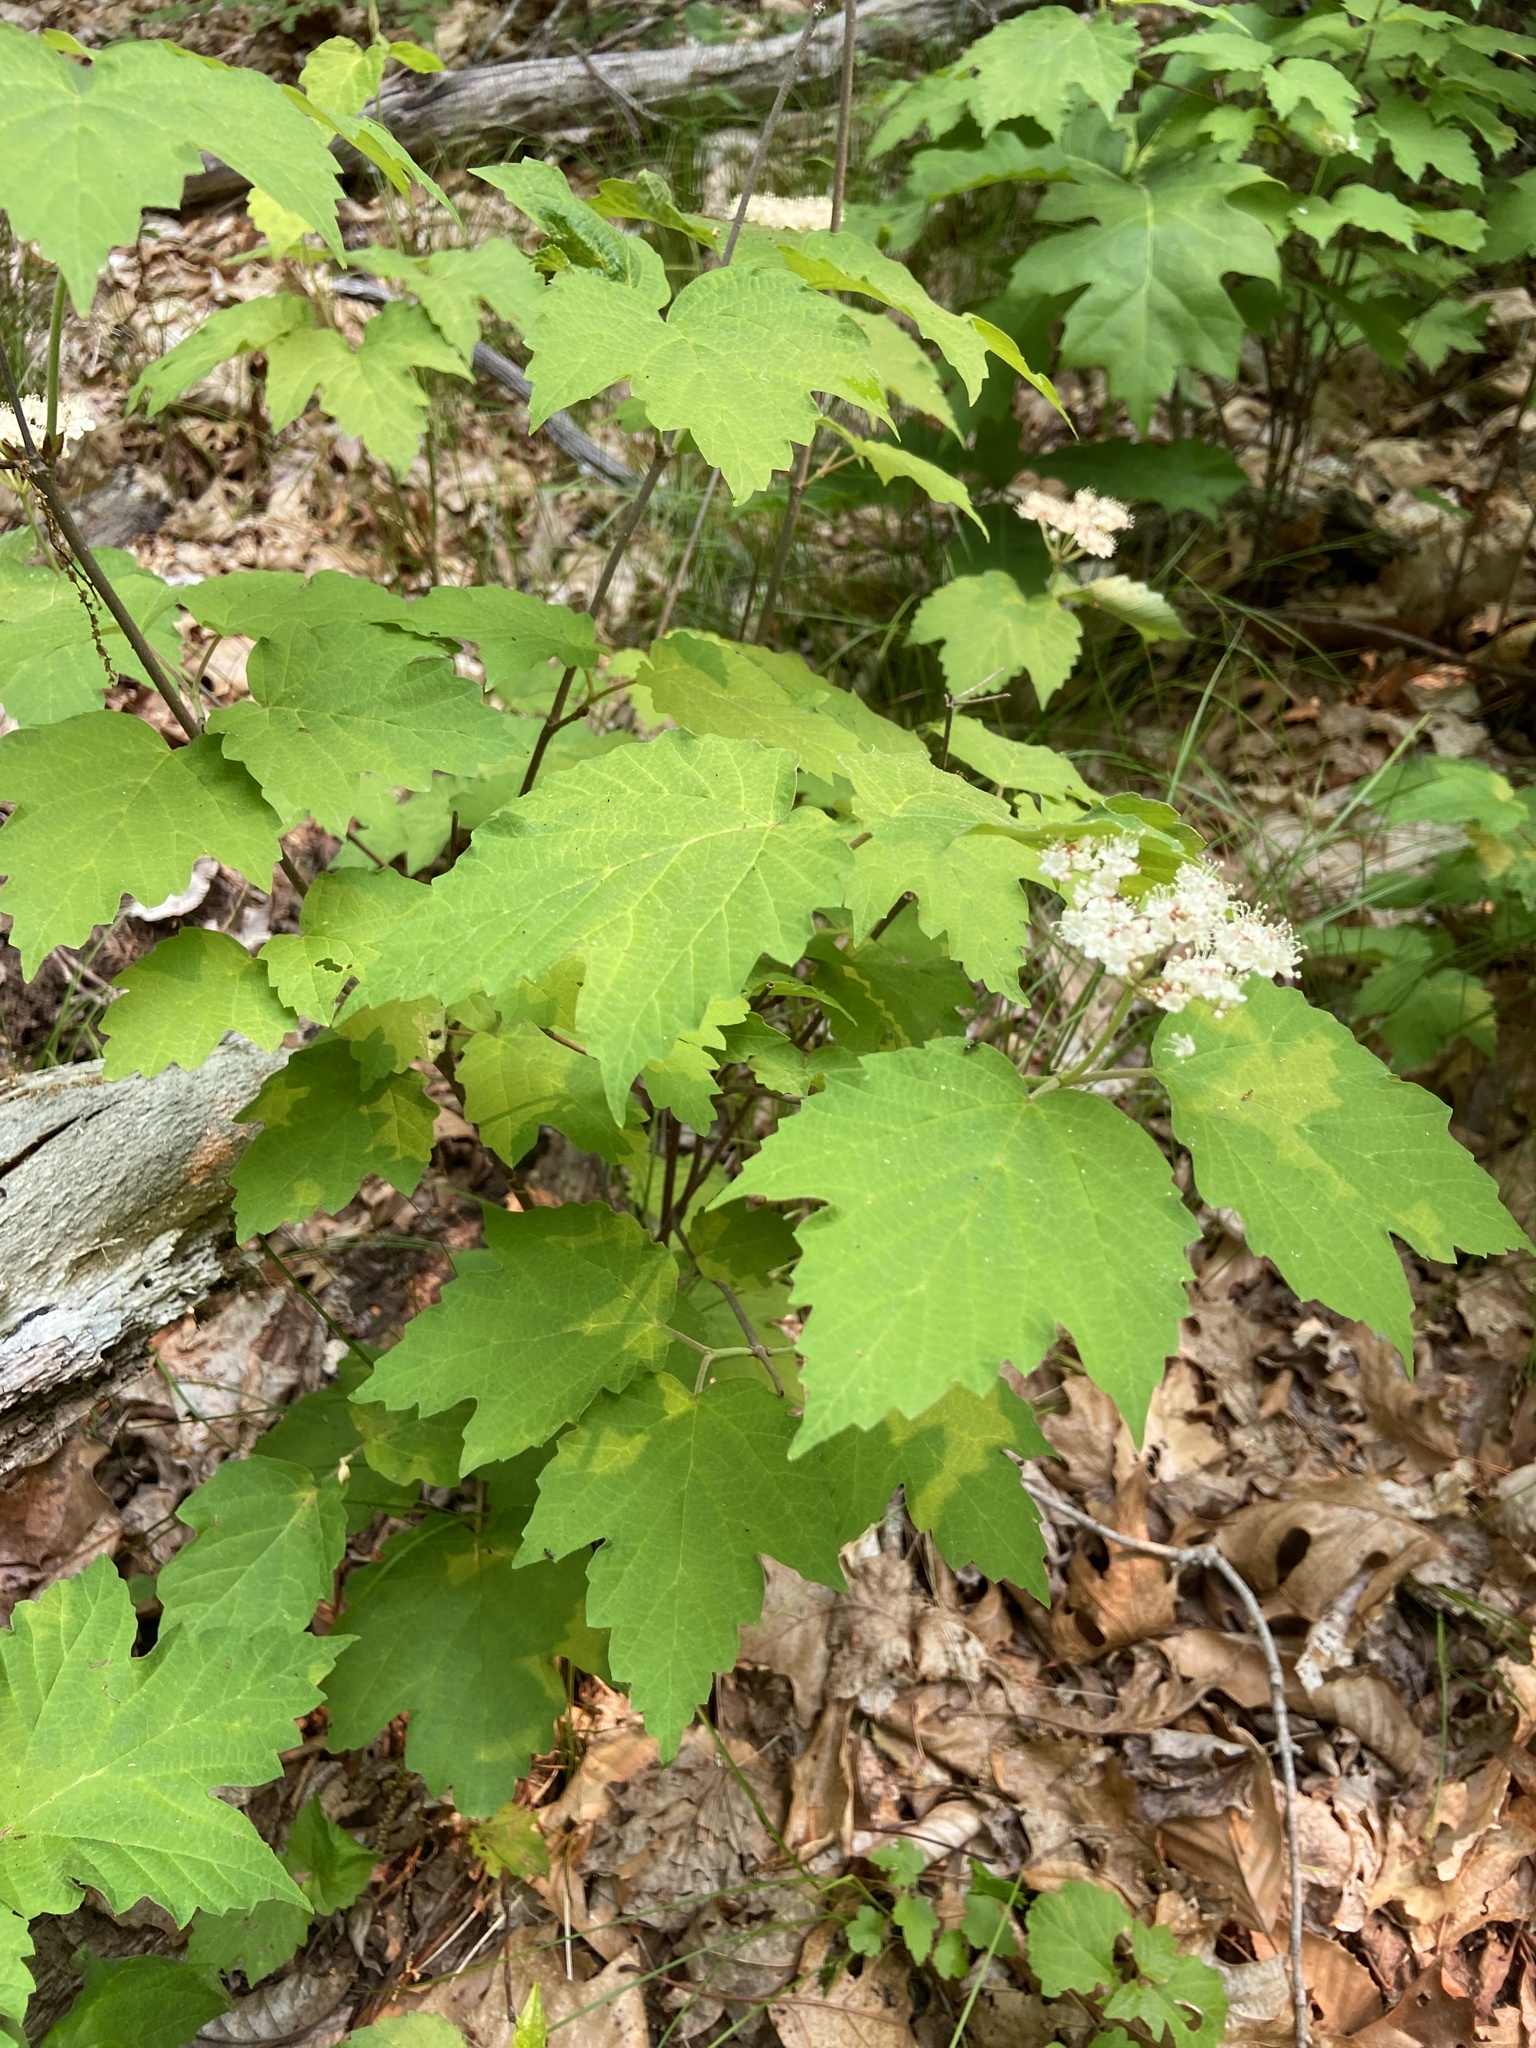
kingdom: Plantae
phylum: Tracheophyta
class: Magnoliopsida
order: Dipsacales
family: Viburnaceae
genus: Viburnum
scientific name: Viburnum acerifolium
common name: Dockmackie
